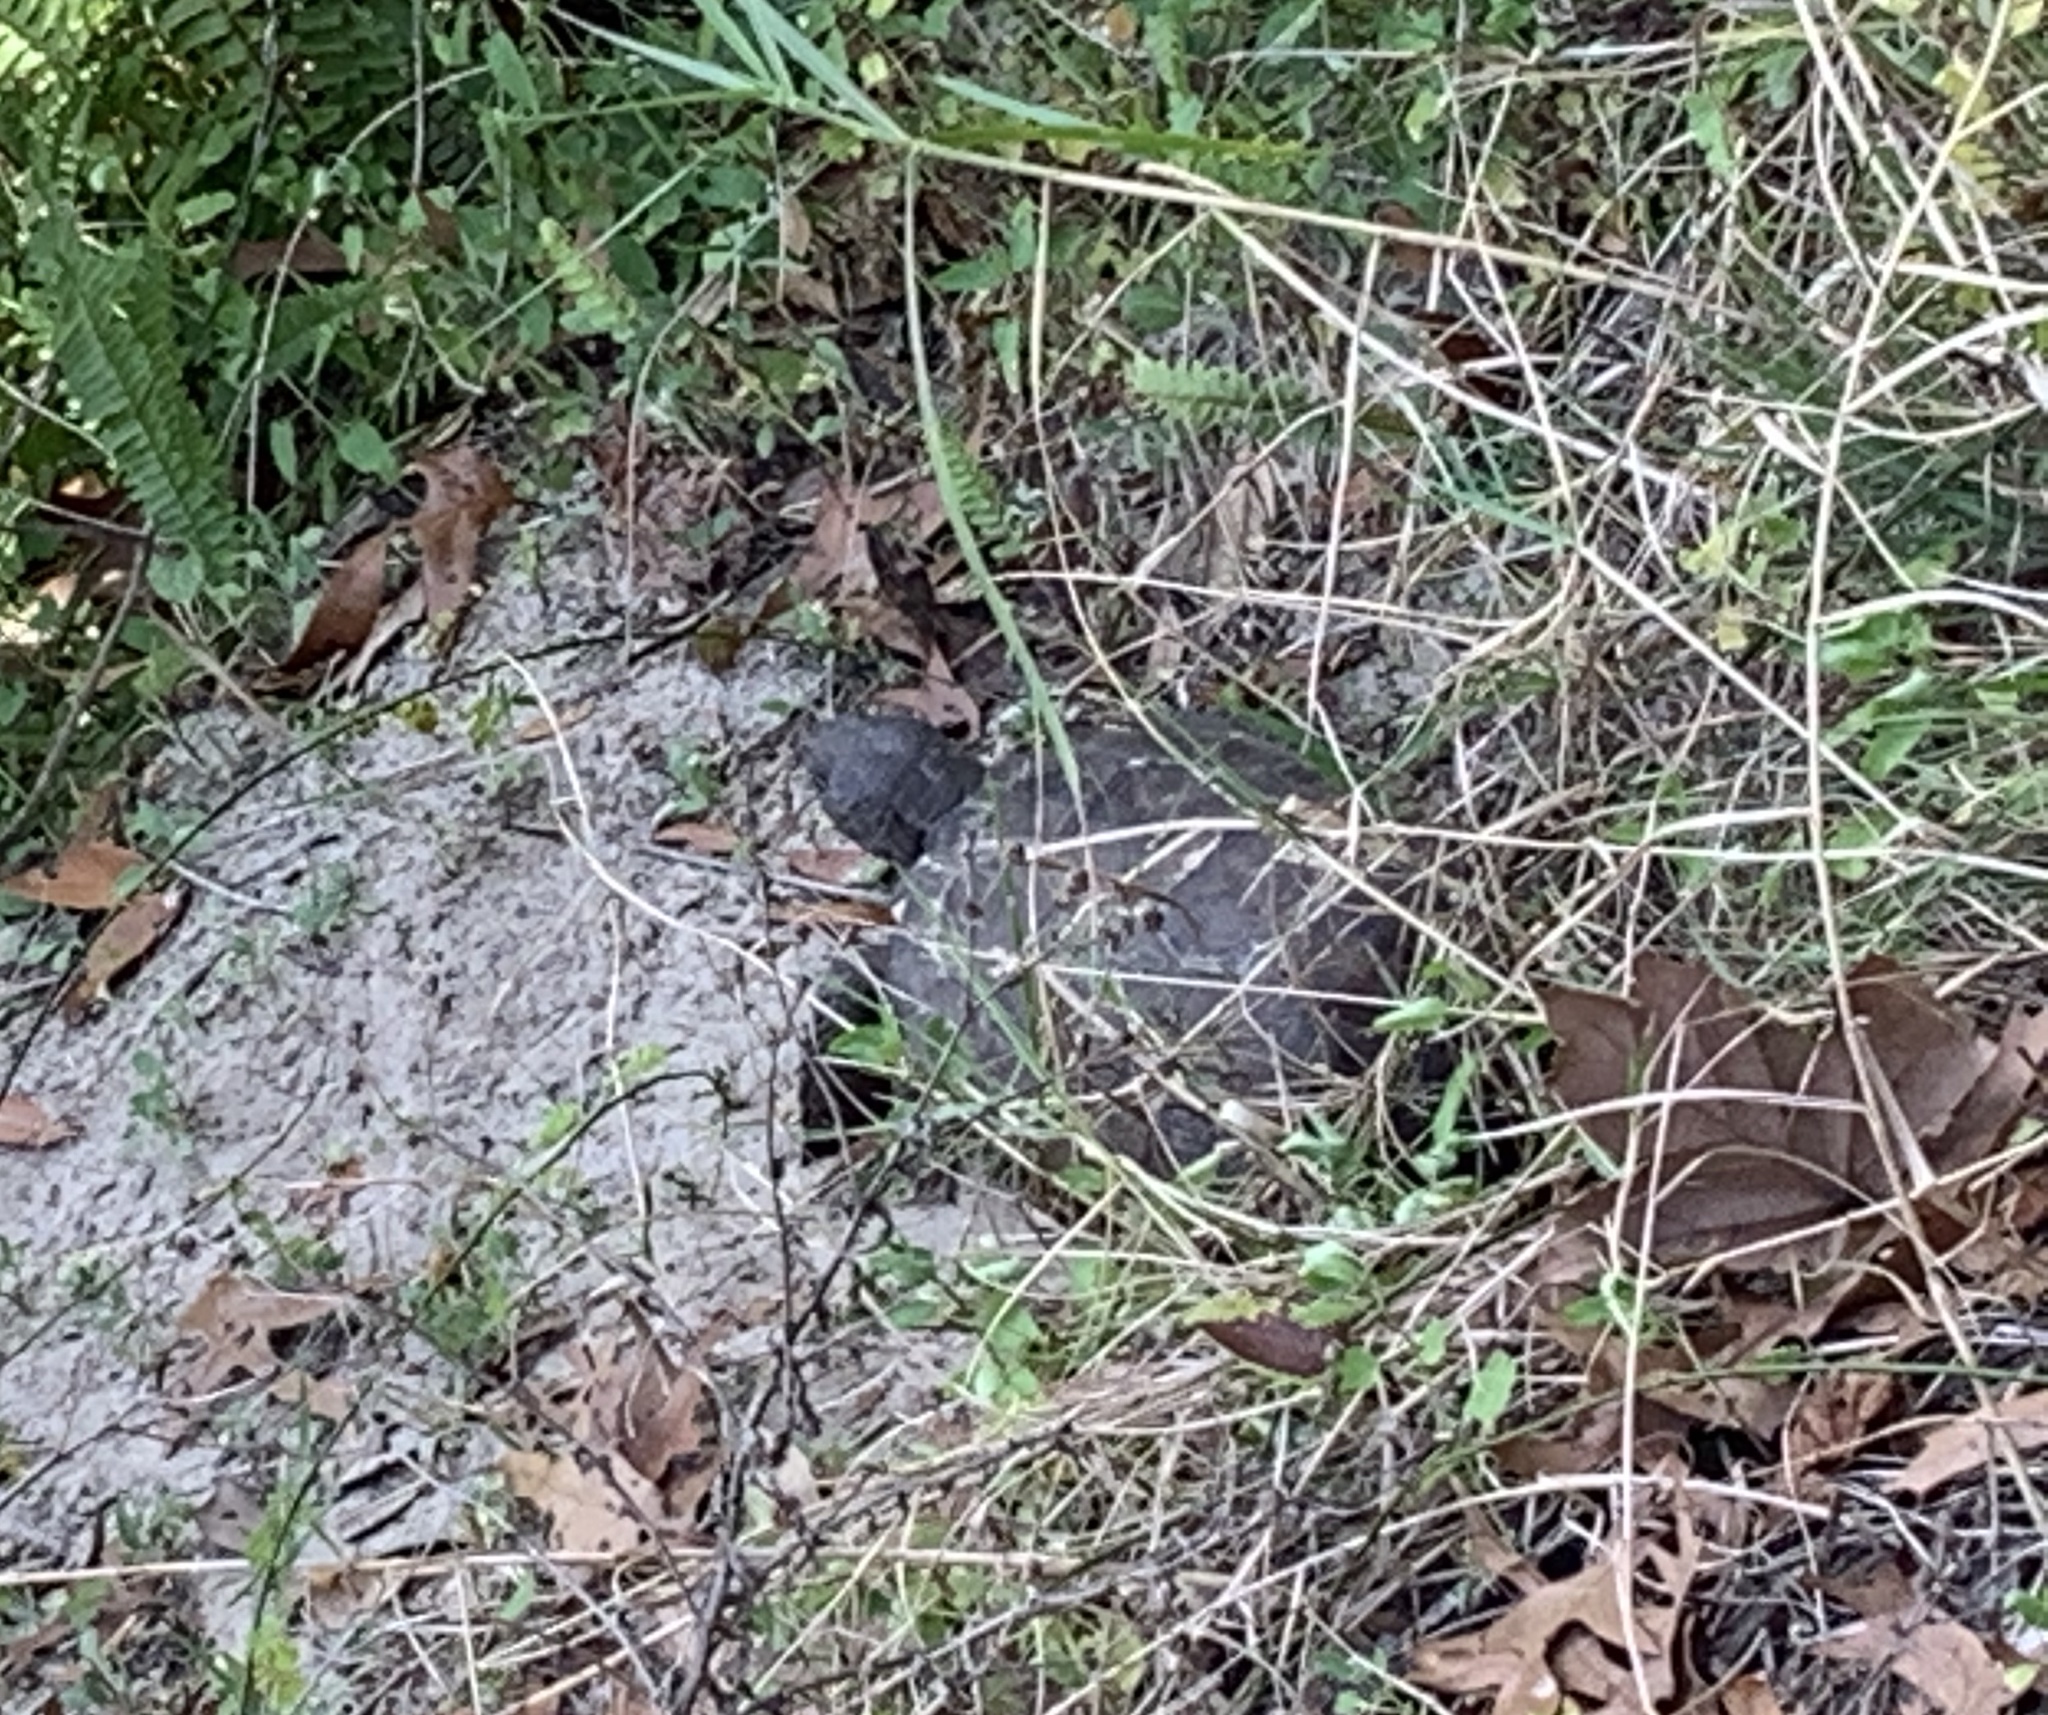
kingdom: Animalia
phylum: Chordata
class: Testudines
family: Testudinidae
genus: Gopherus
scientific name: Gopherus polyphemus
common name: Florida gopher tortoise
